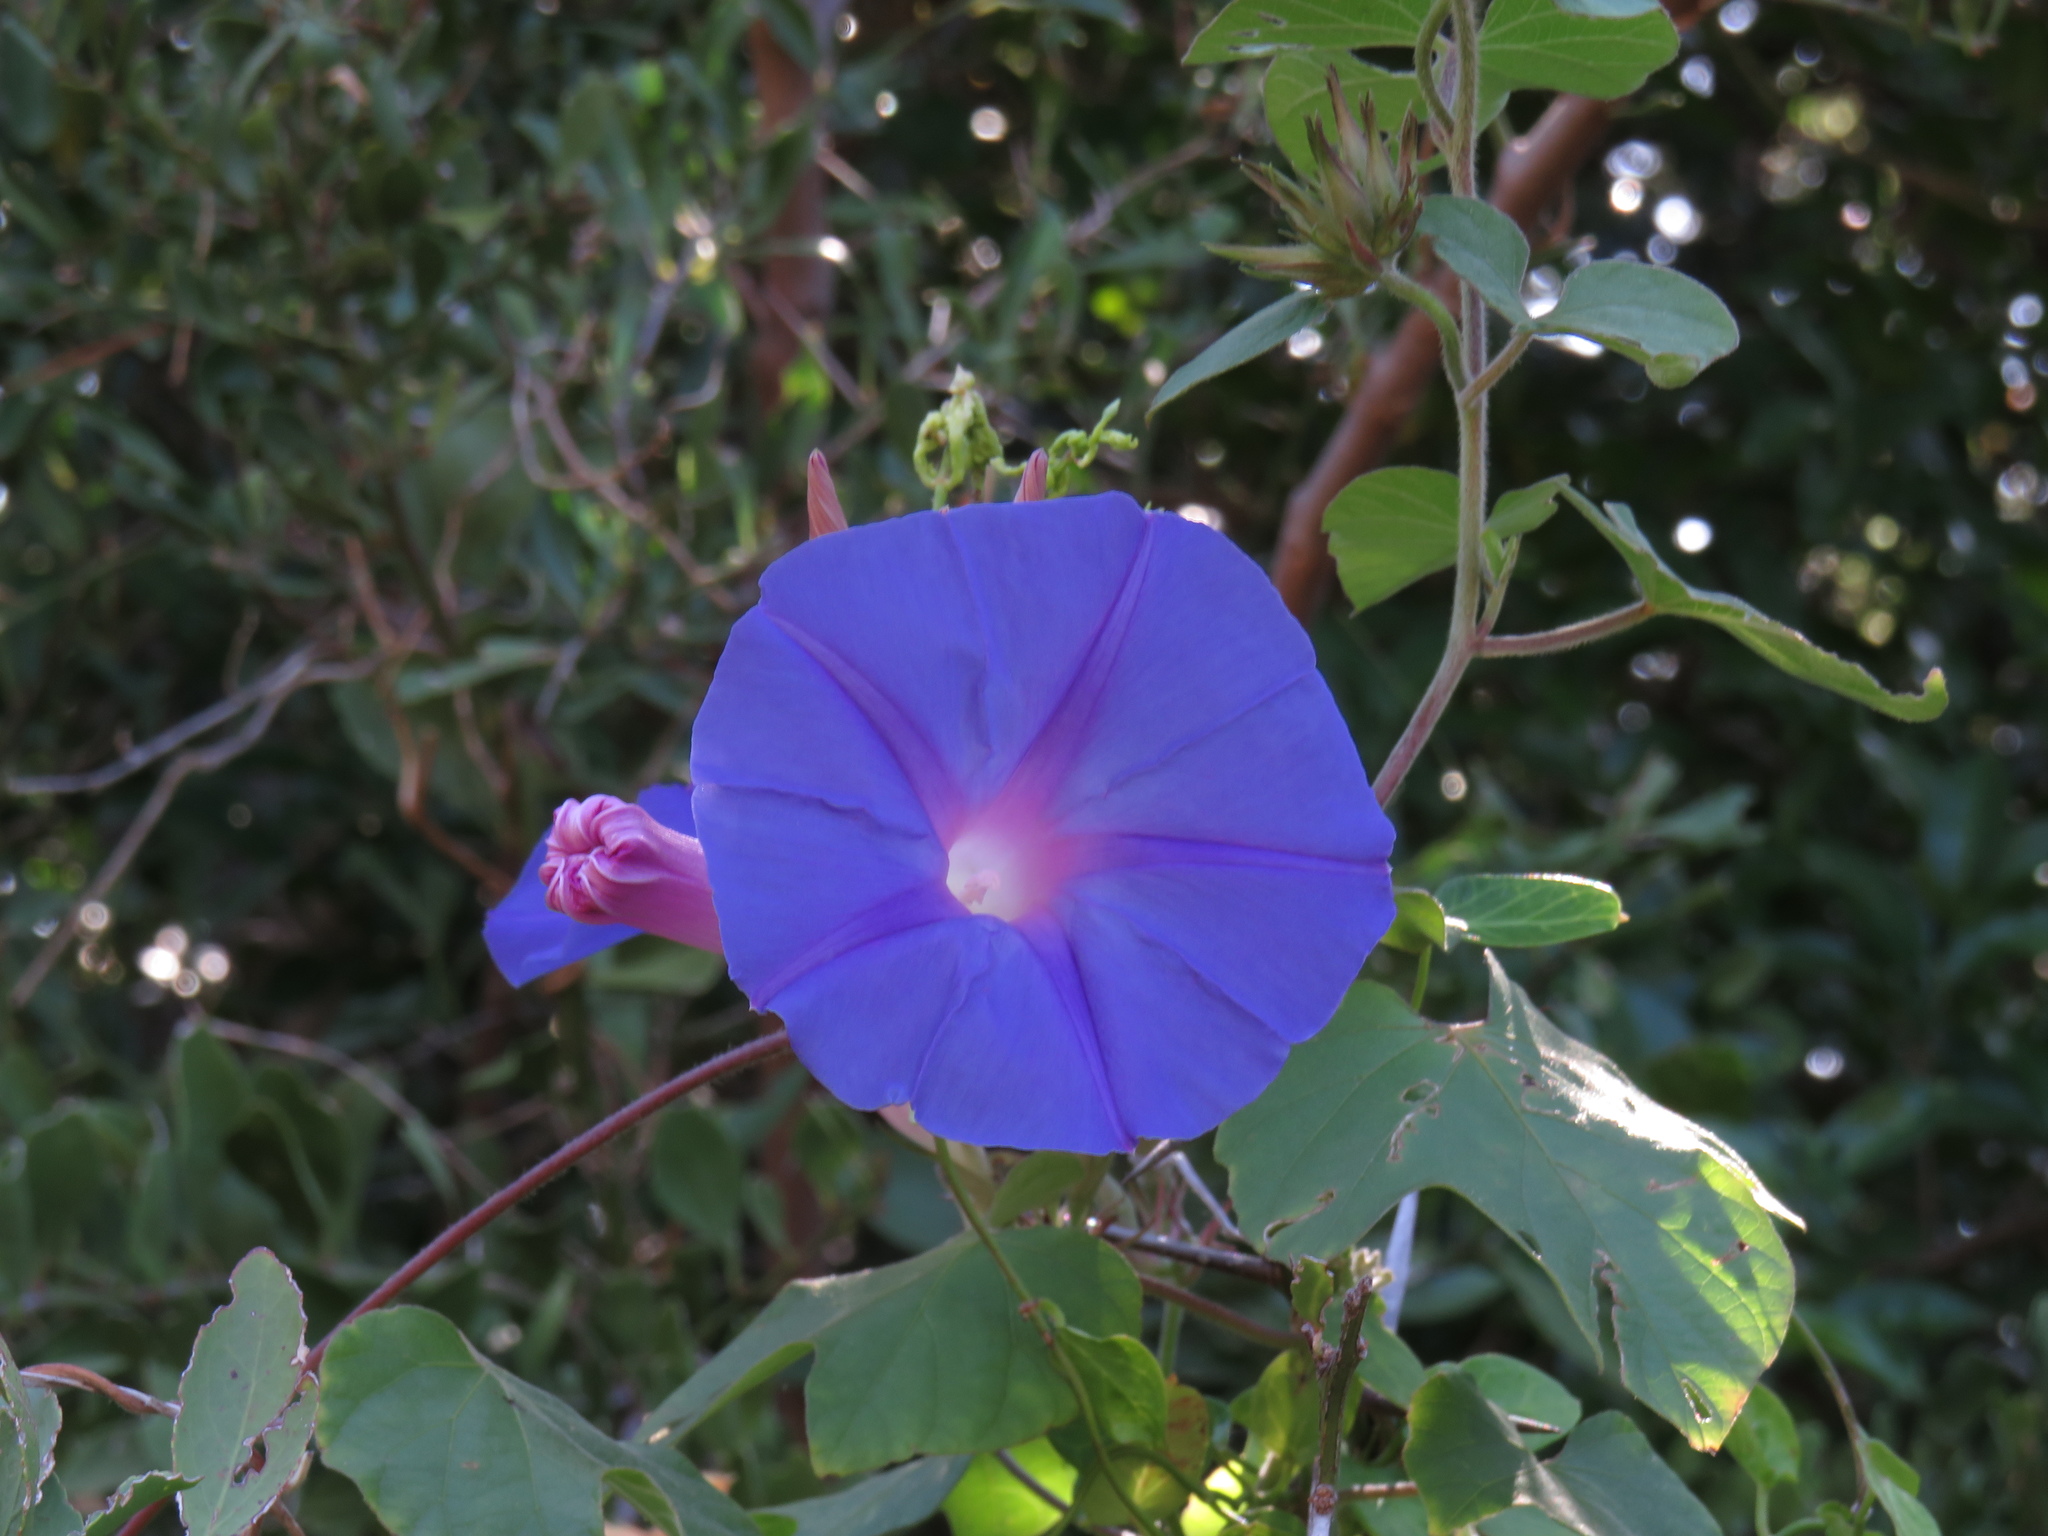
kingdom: Plantae
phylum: Tracheophyta
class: Magnoliopsida
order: Solanales
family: Convolvulaceae
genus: Ipomoea
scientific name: Ipomoea indica
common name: Blue dawnflower
